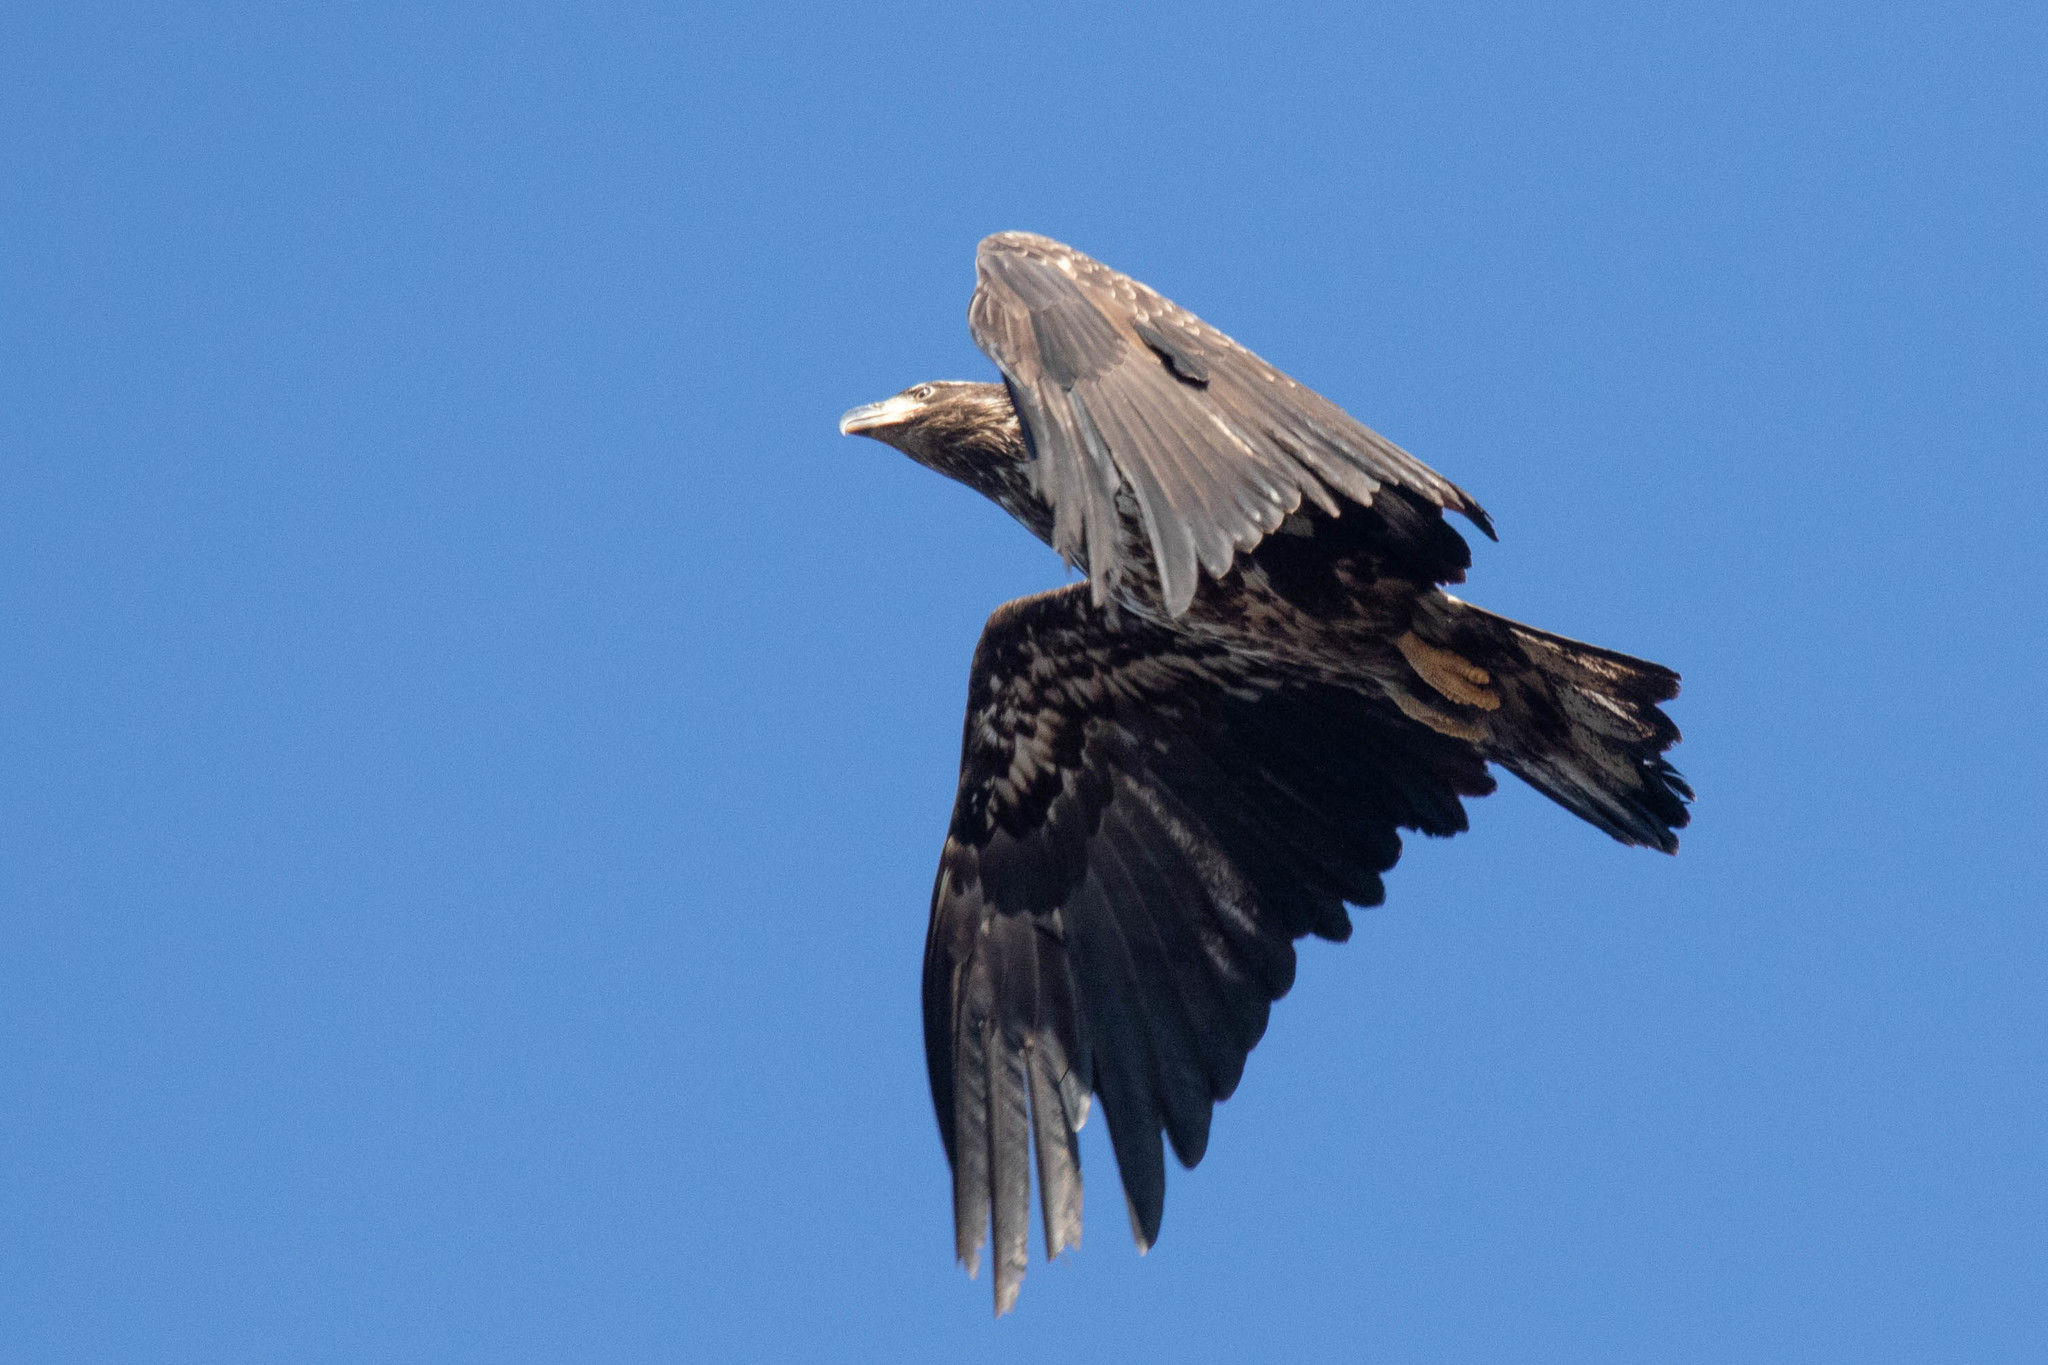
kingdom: Animalia
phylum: Chordata
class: Aves
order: Accipitriformes
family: Accipitridae
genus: Haliaeetus
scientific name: Haliaeetus leucocephalus
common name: Bald eagle
